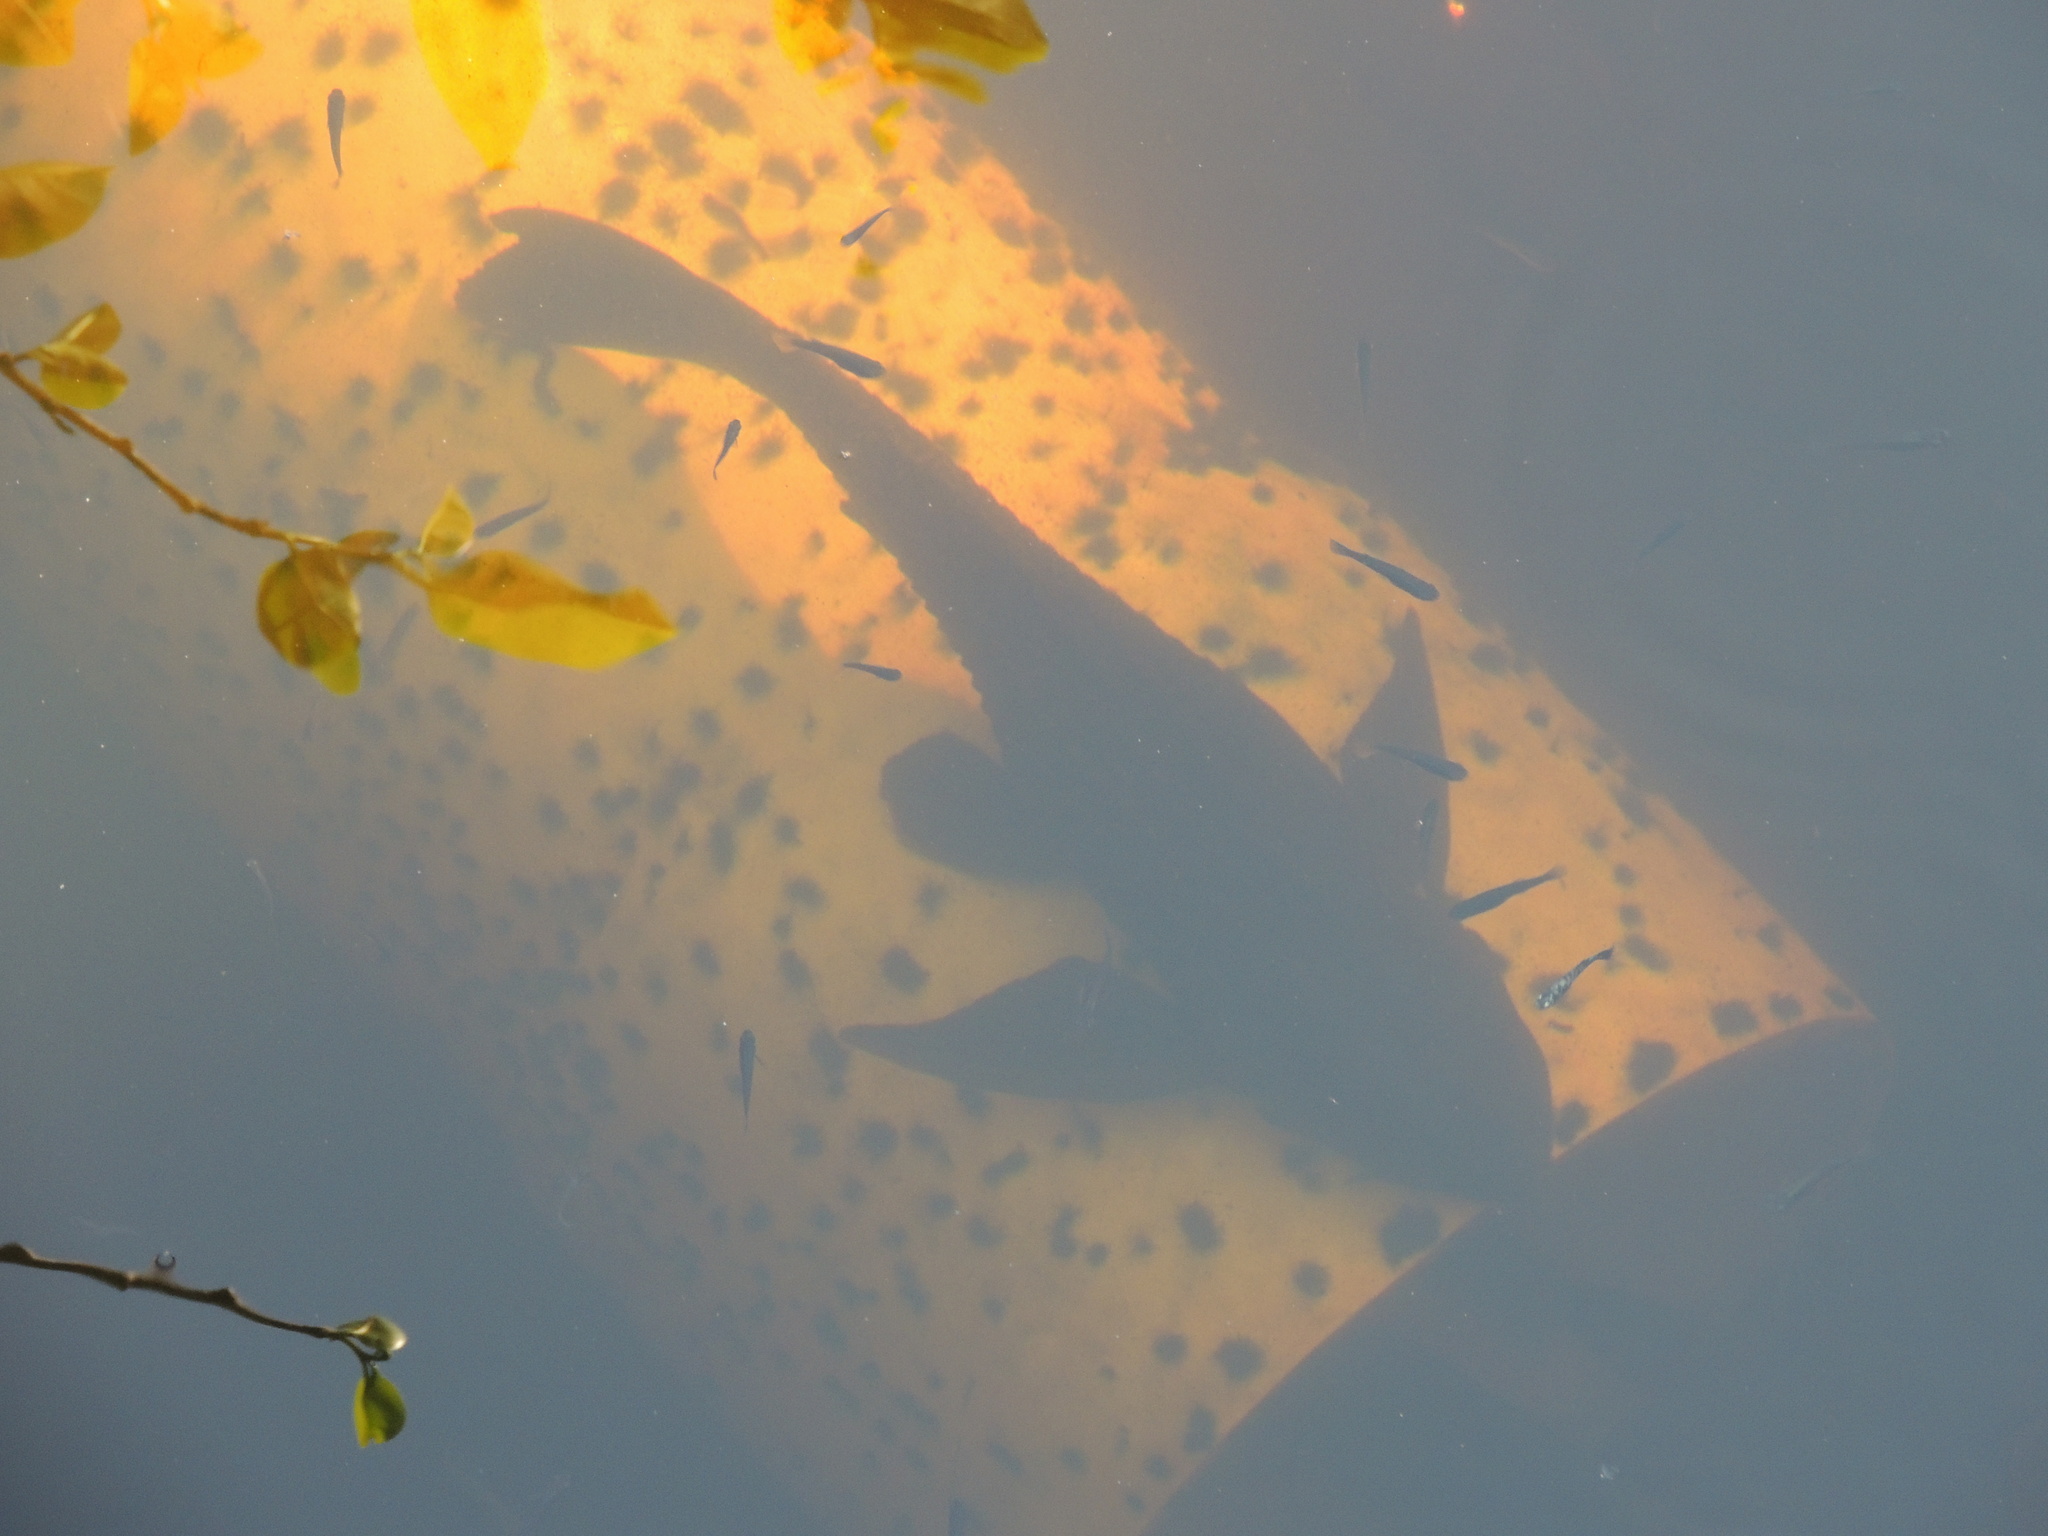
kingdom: Animalia
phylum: Chordata
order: Siluriformes
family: Loricariidae
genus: Pterygoplichthys
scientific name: Pterygoplichthys
